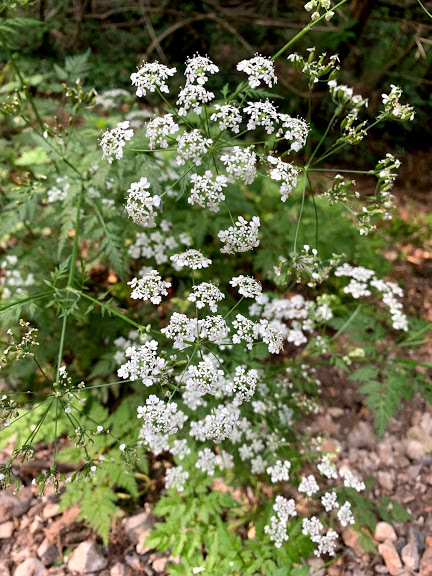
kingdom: Plantae
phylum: Tracheophyta
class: Magnoliopsida
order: Apiales
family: Apiaceae
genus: Anthriscus
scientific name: Anthriscus sylvestris
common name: Cow parsley
